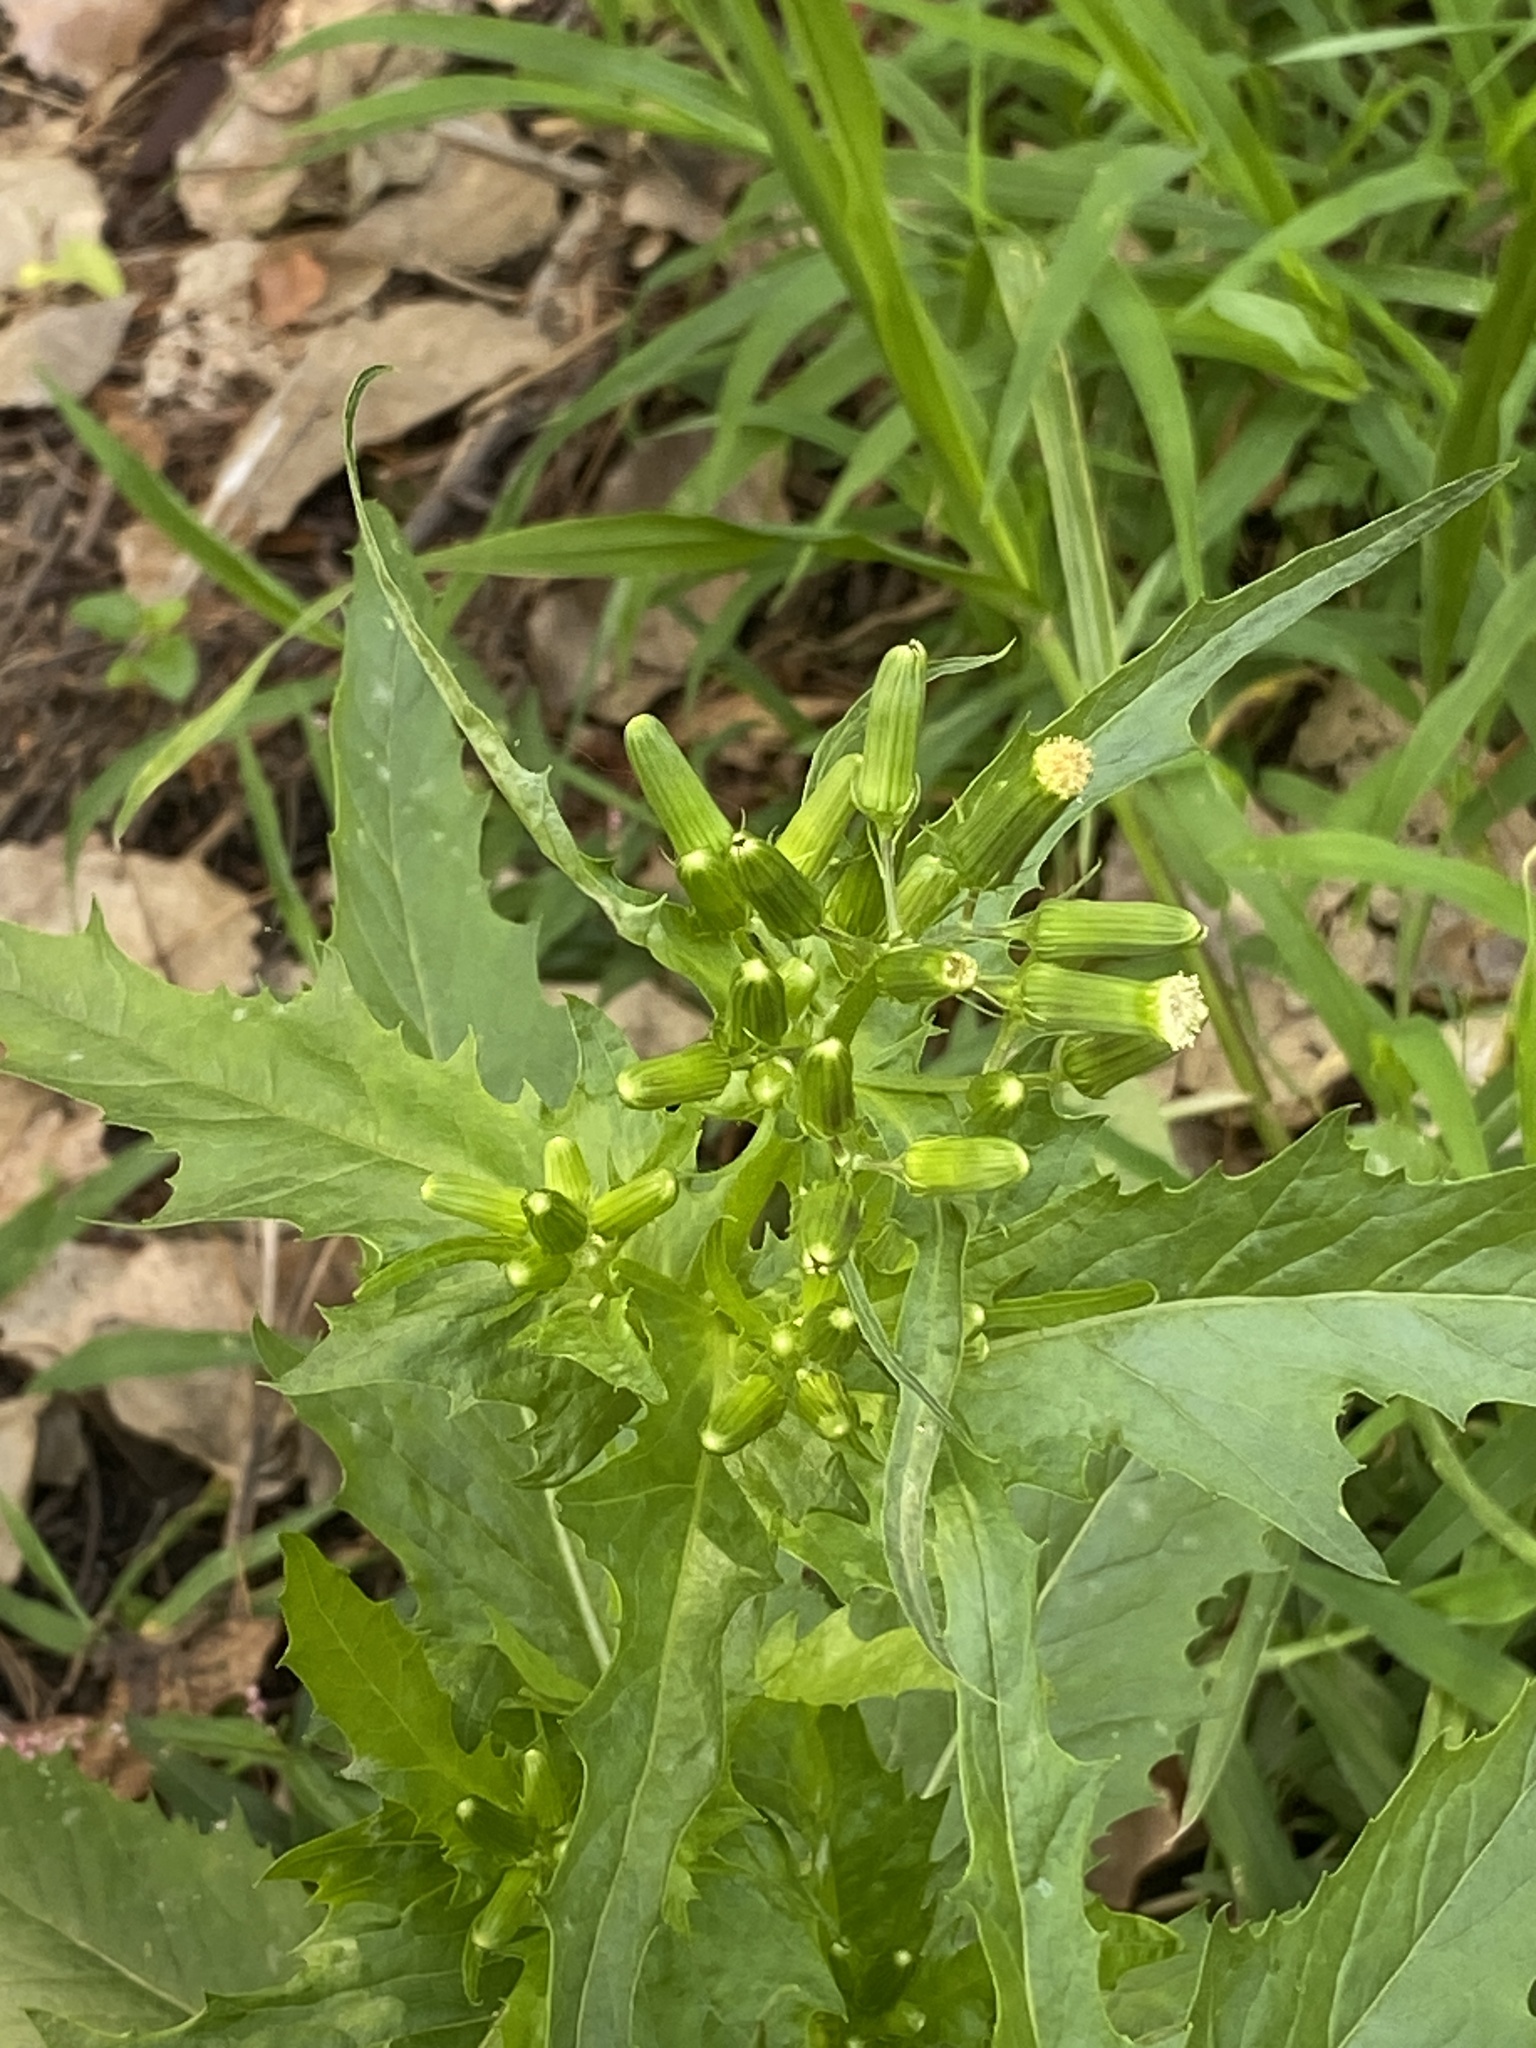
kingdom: Plantae
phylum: Tracheophyta
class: Magnoliopsida
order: Asterales
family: Asteraceae
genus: Erechtites
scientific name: Erechtites hieraciifolius
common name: American burnweed
